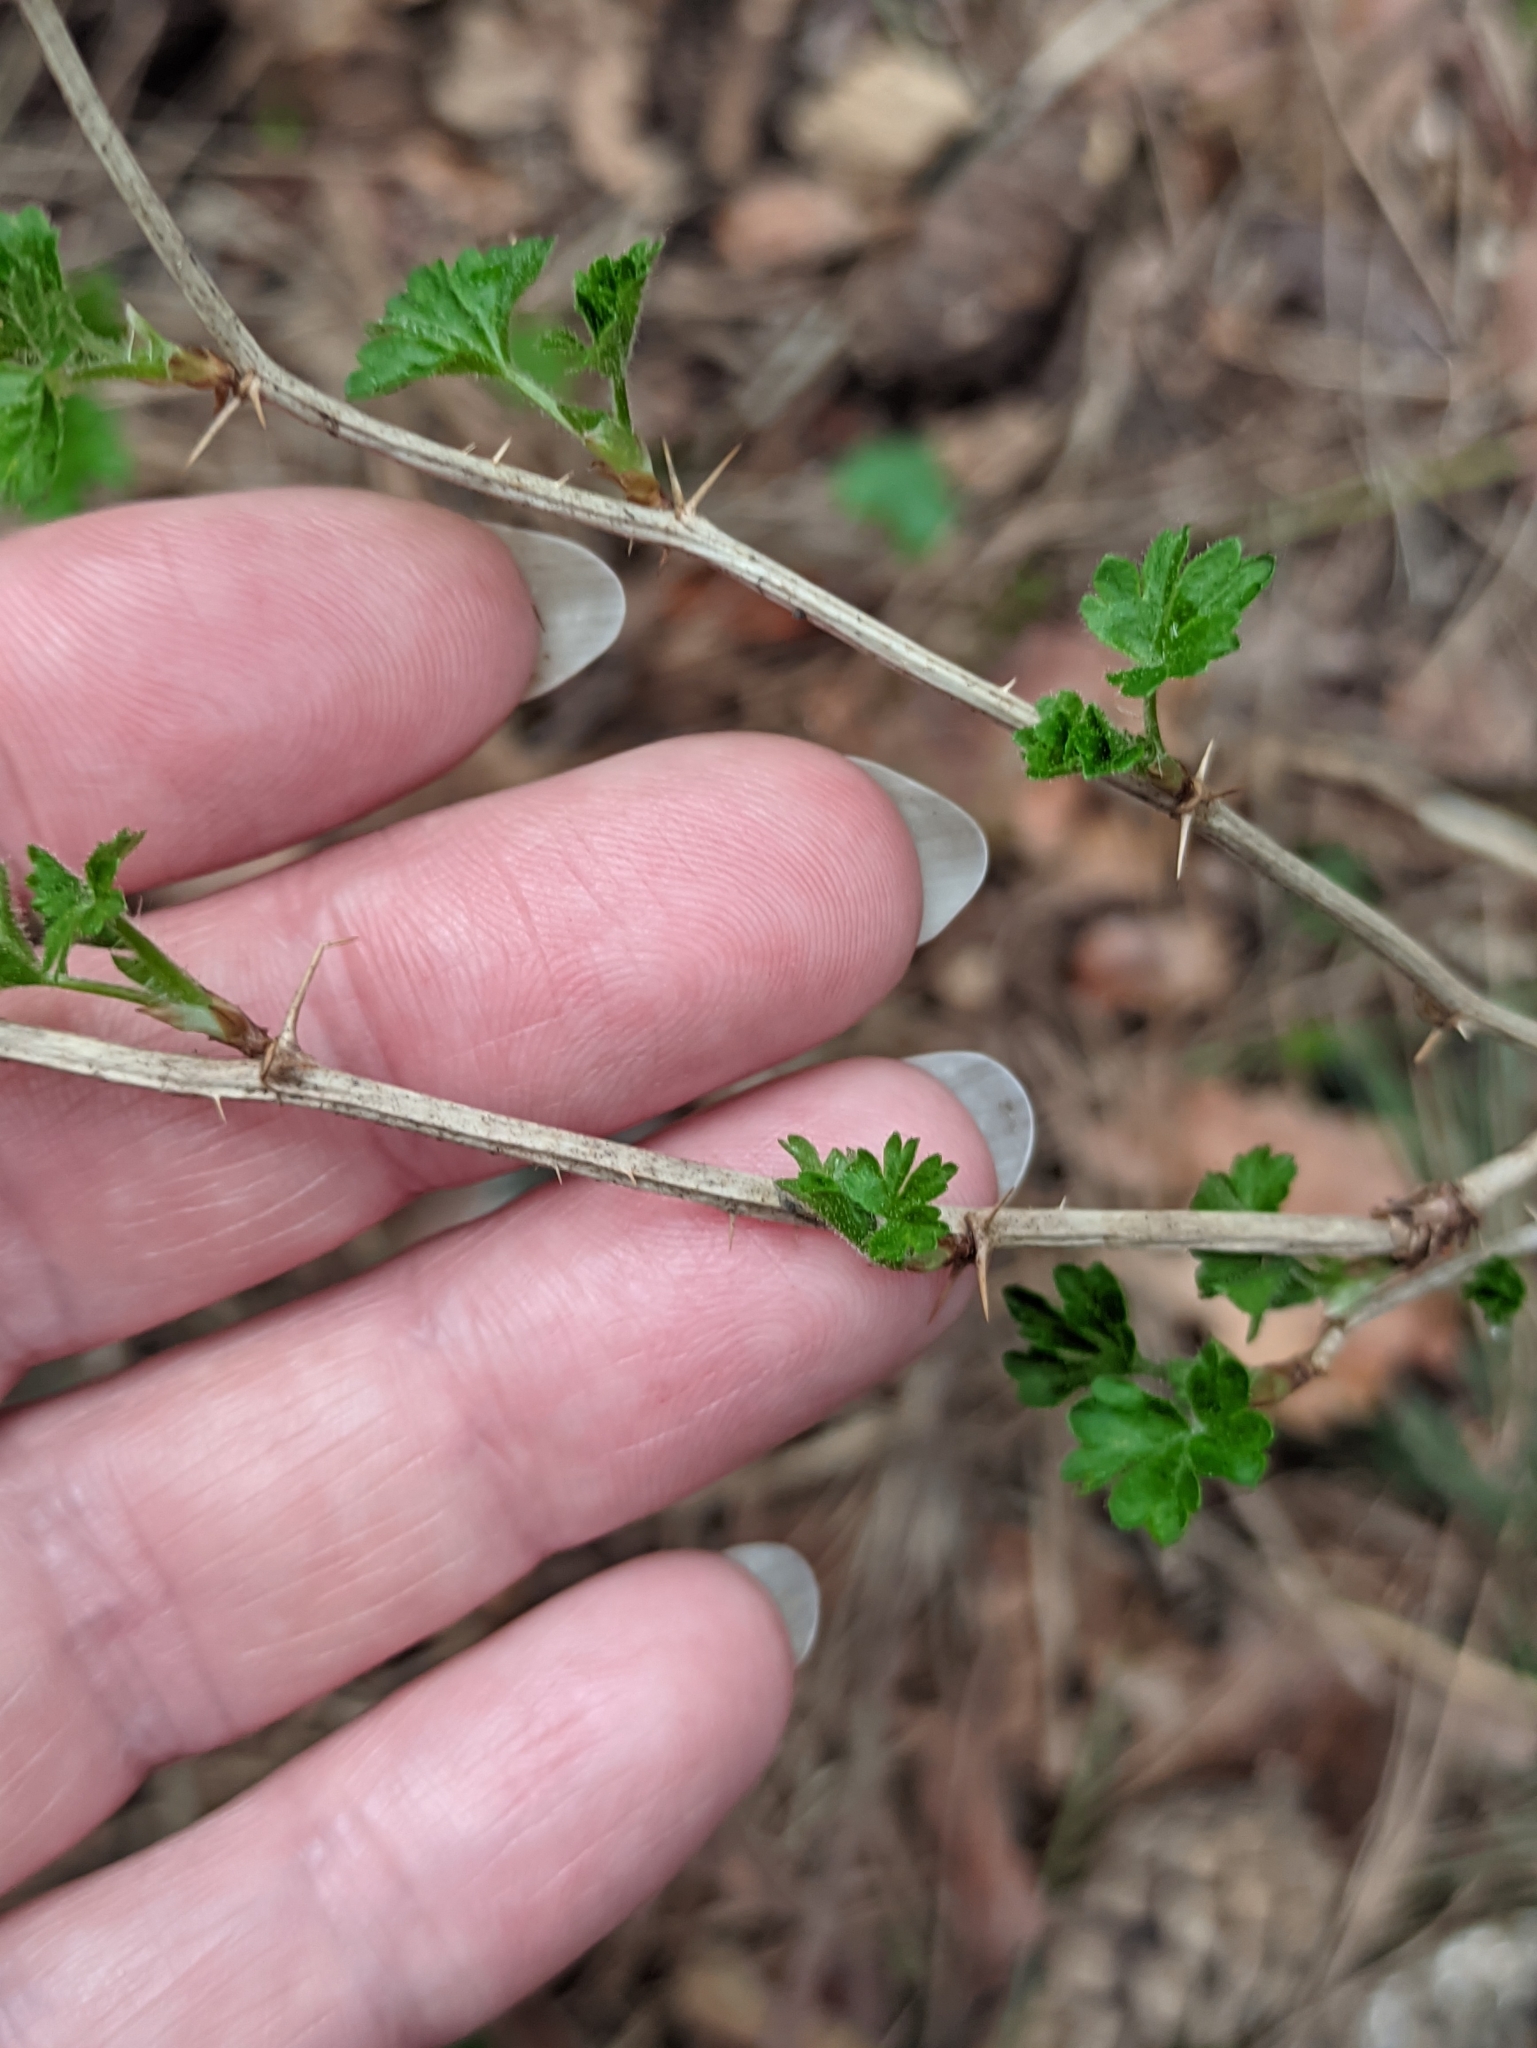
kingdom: Plantae
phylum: Tracheophyta
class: Magnoliopsida
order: Saxifragales
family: Grossulariaceae
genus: Ribes
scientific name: Ribes uva-crispa
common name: Gooseberry
